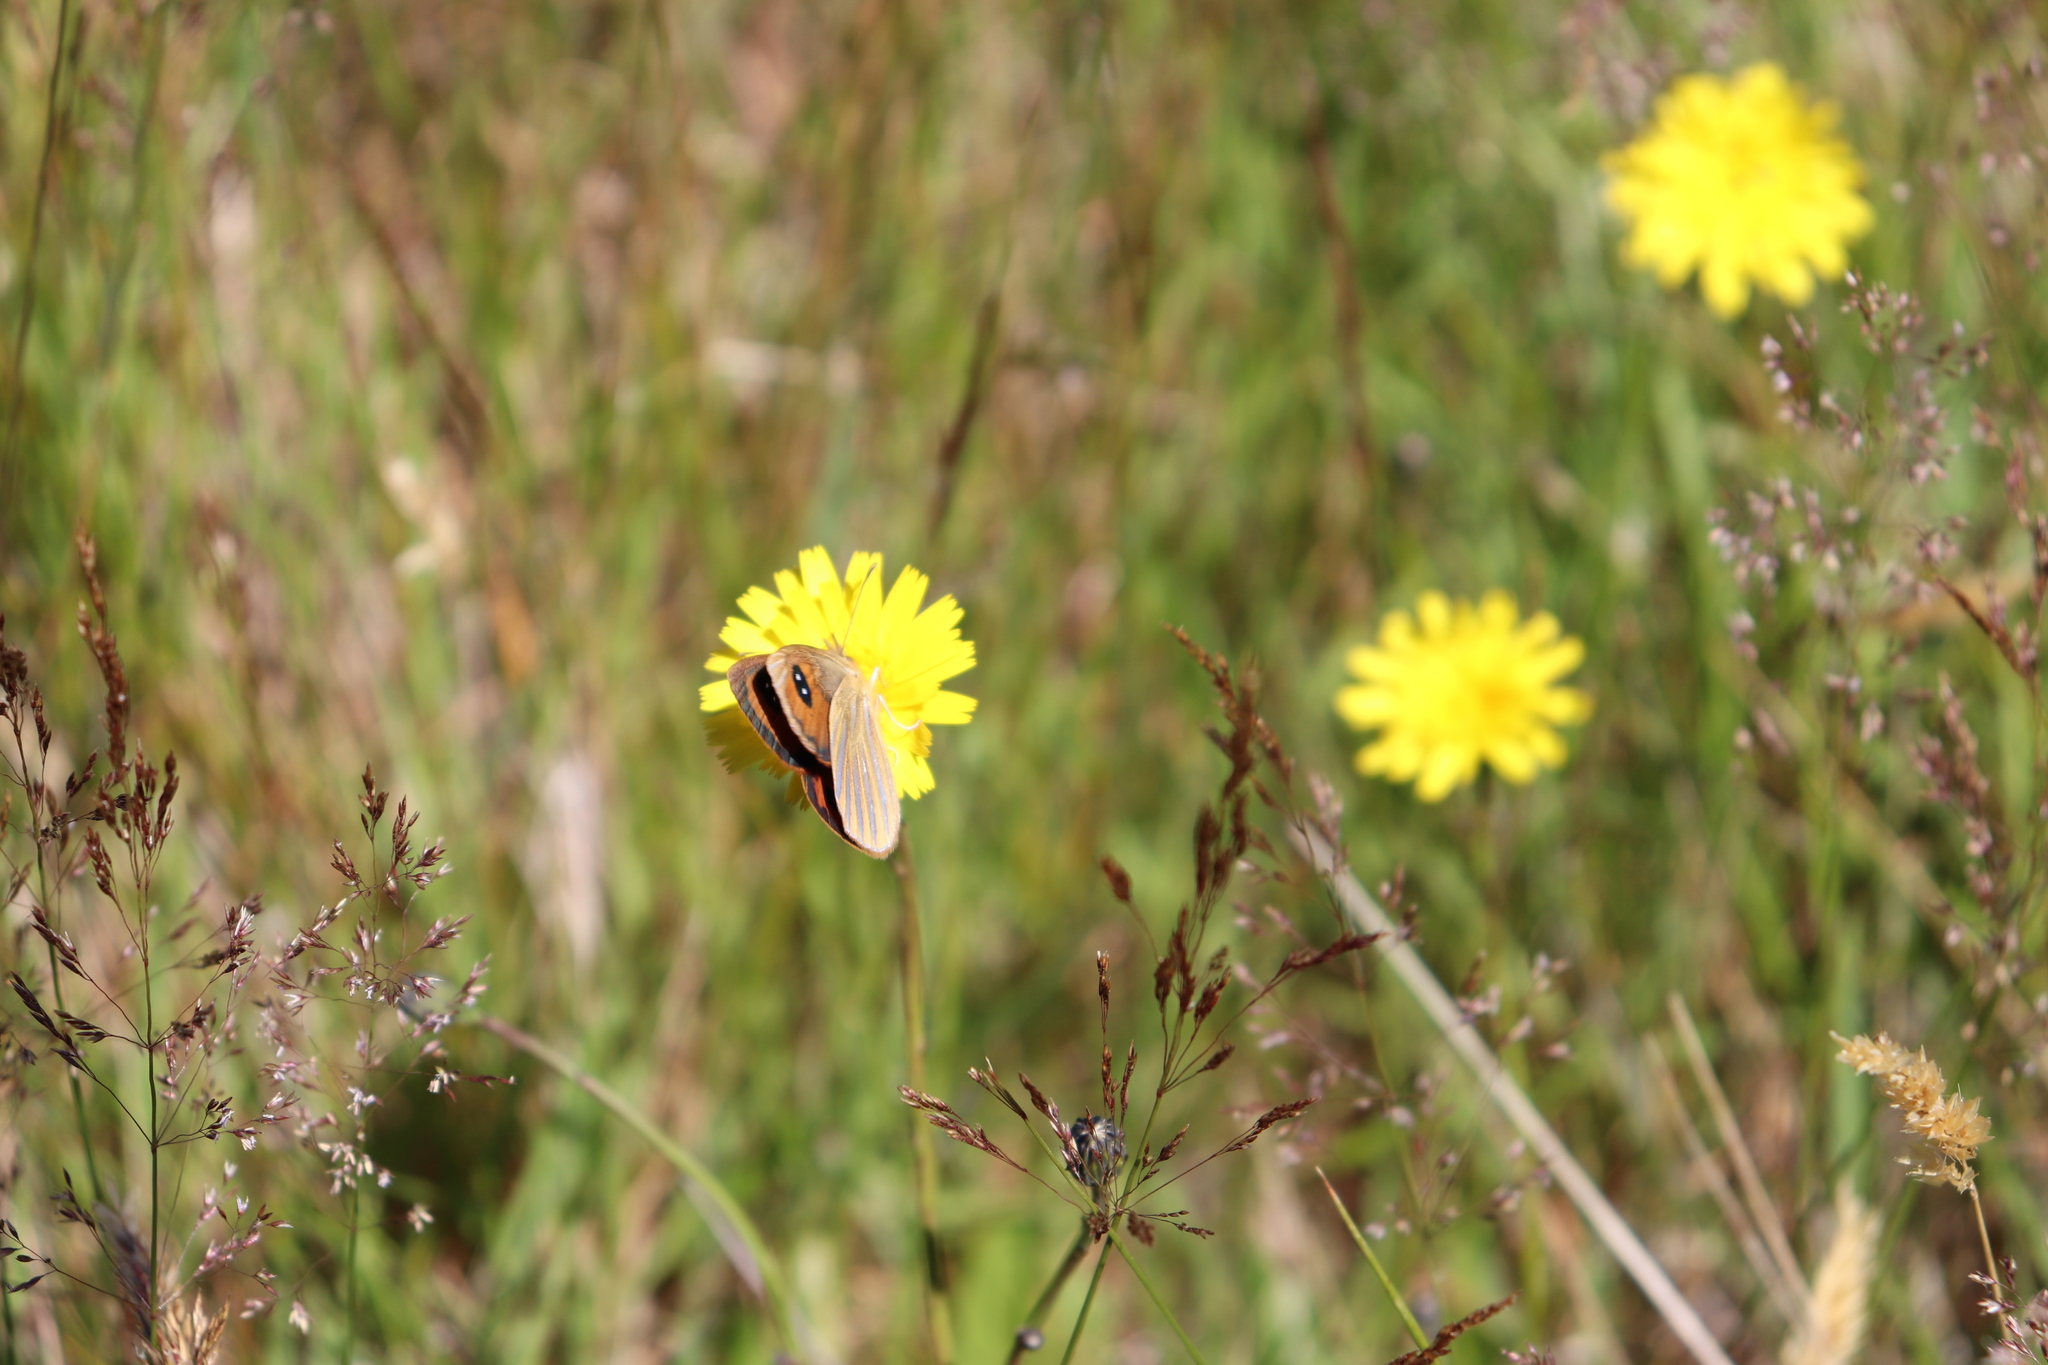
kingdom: Animalia
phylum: Arthropoda
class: Insecta
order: Lepidoptera
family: Nymphalidae
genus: Argyrophenga
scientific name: Argyrophenga antipodum
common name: Common tussock butterfly
